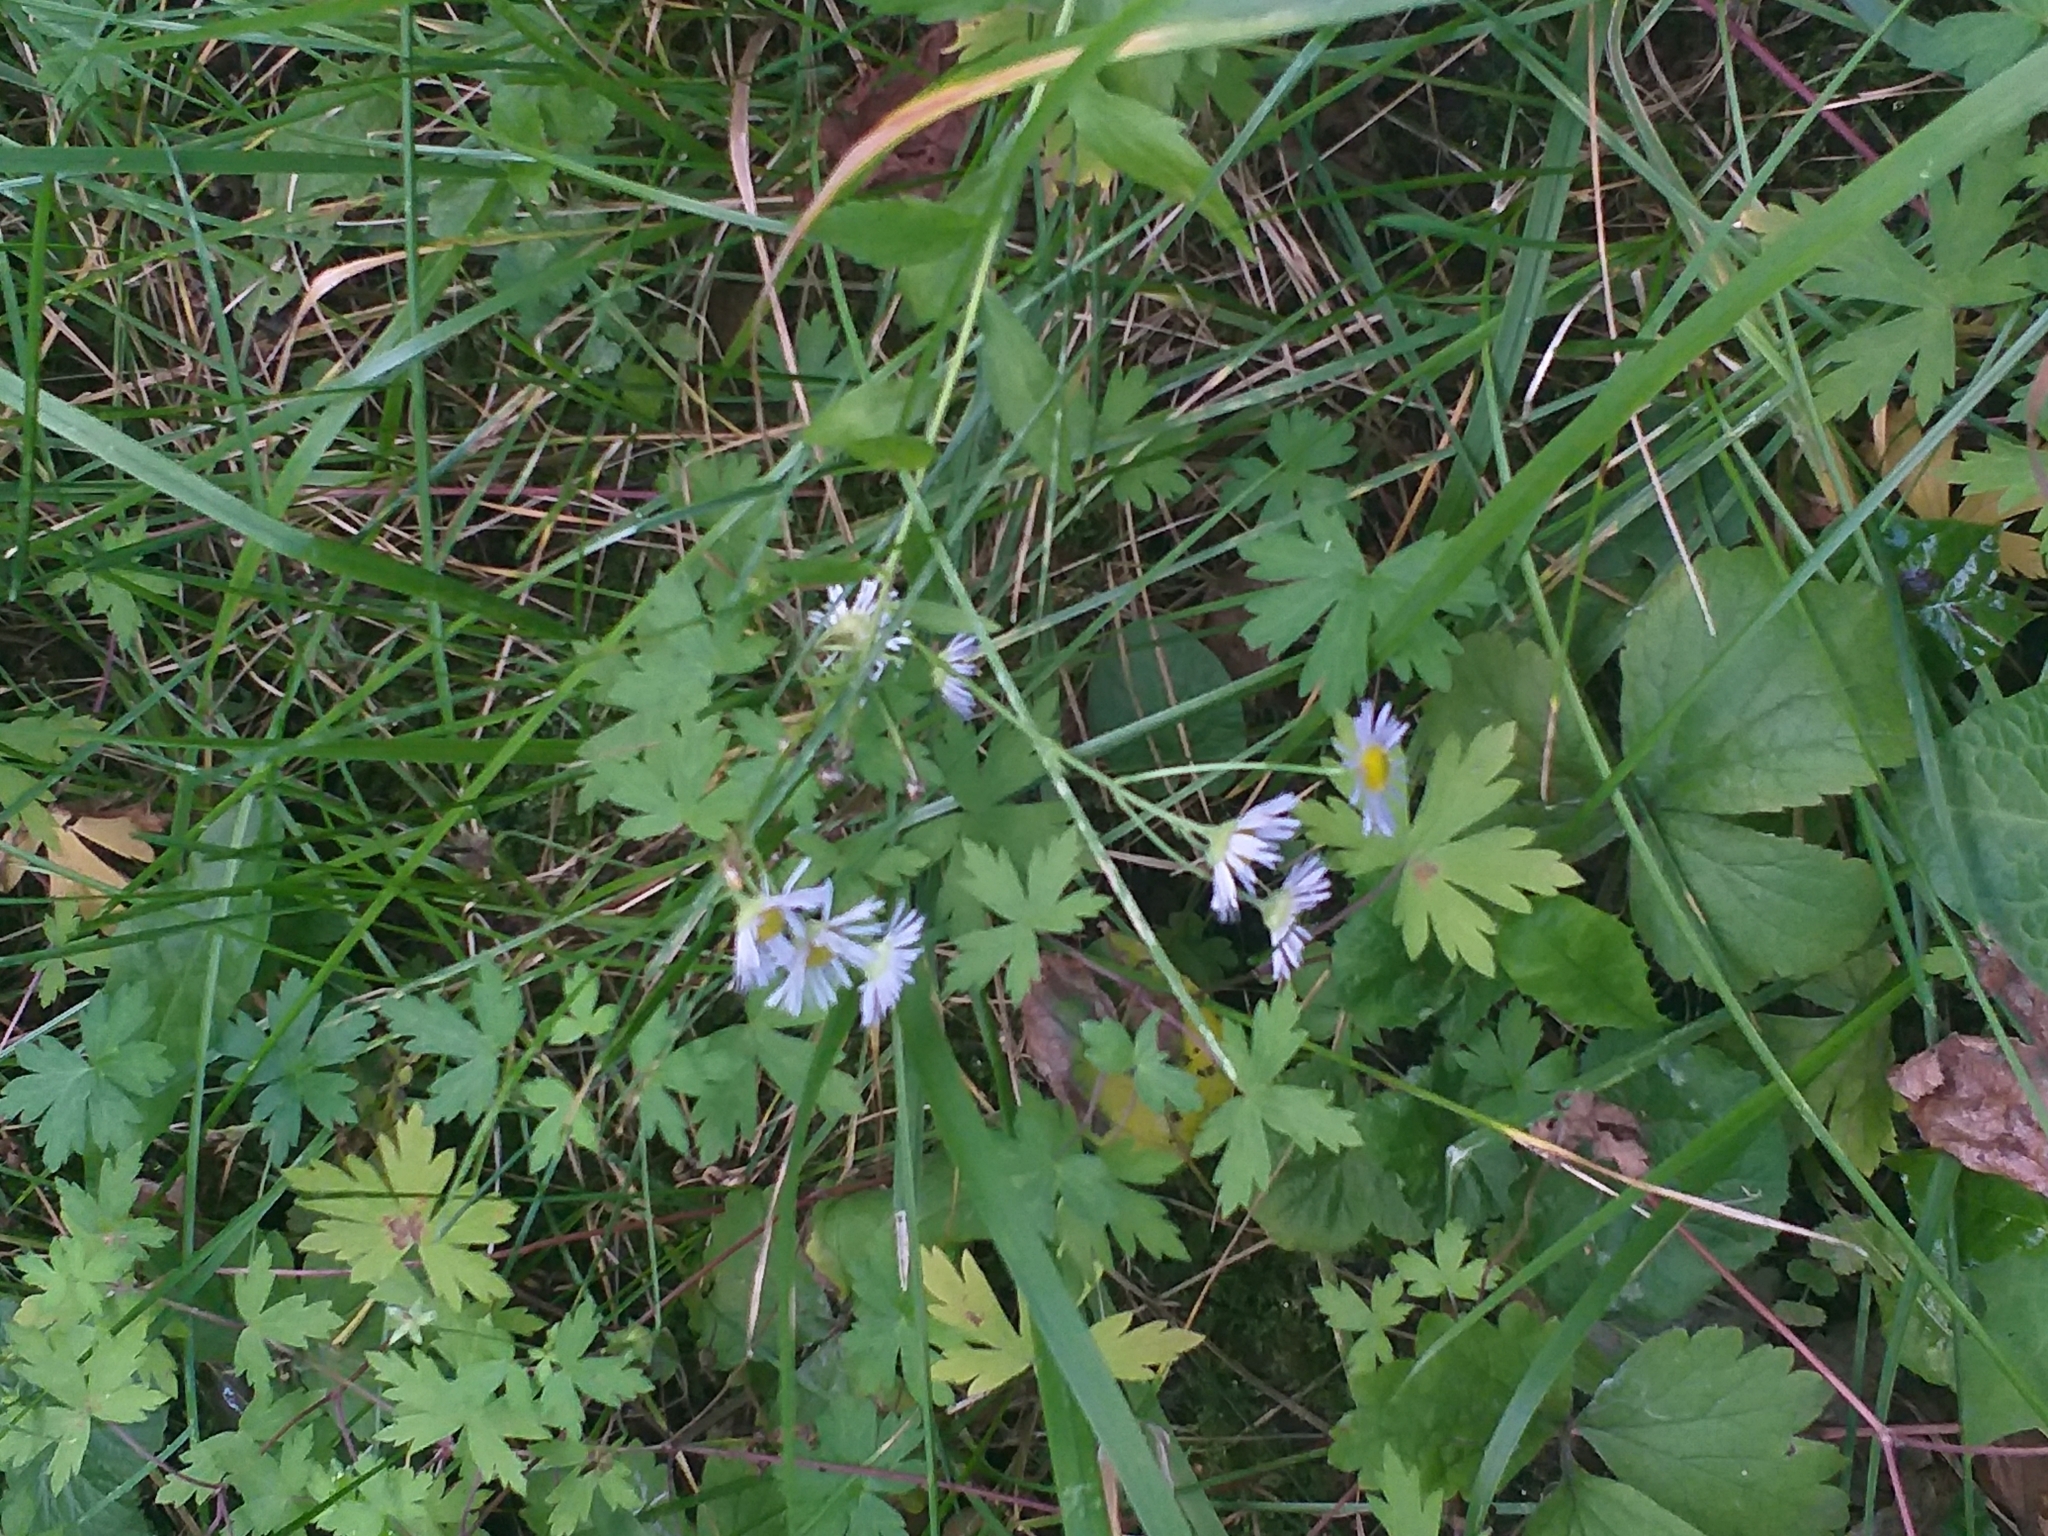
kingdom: Plantae
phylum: Tracheophyta
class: Magnoliopsida
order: Asterales
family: Asteraceae
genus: Erigeron
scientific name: Erigeron annuus
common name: Tall fleabane
